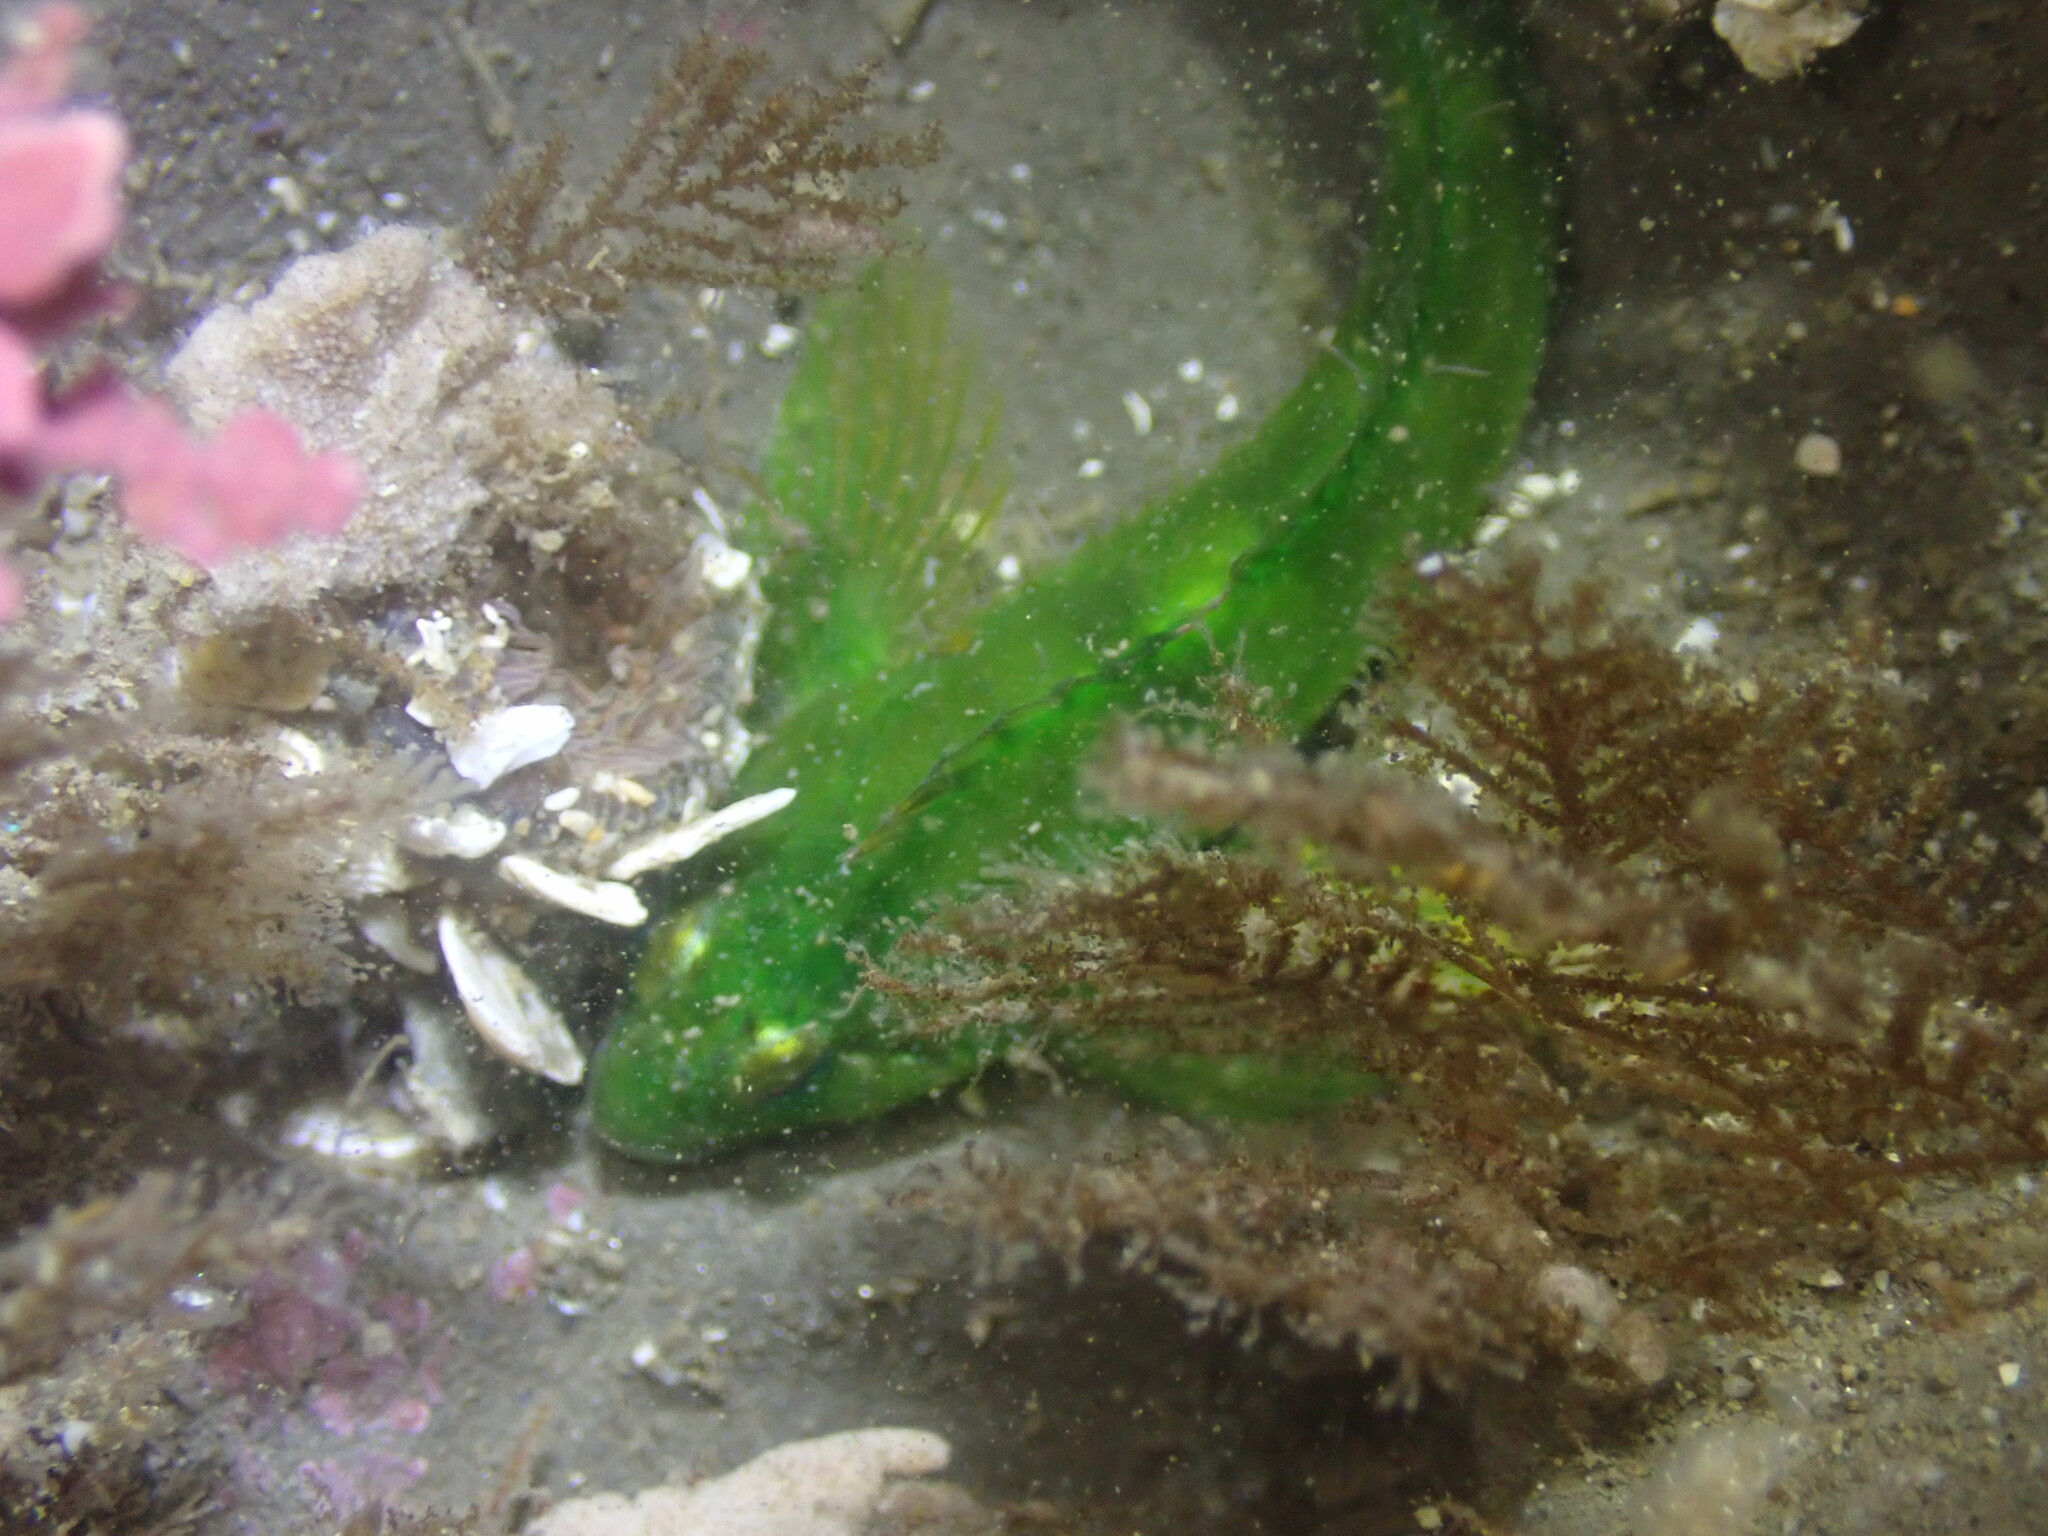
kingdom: Animalia
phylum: Chordata
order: Scorpaeniformes
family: Cottidae
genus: Oligocottus
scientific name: Oligocottus snyderi
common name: Fluffy sculpin
